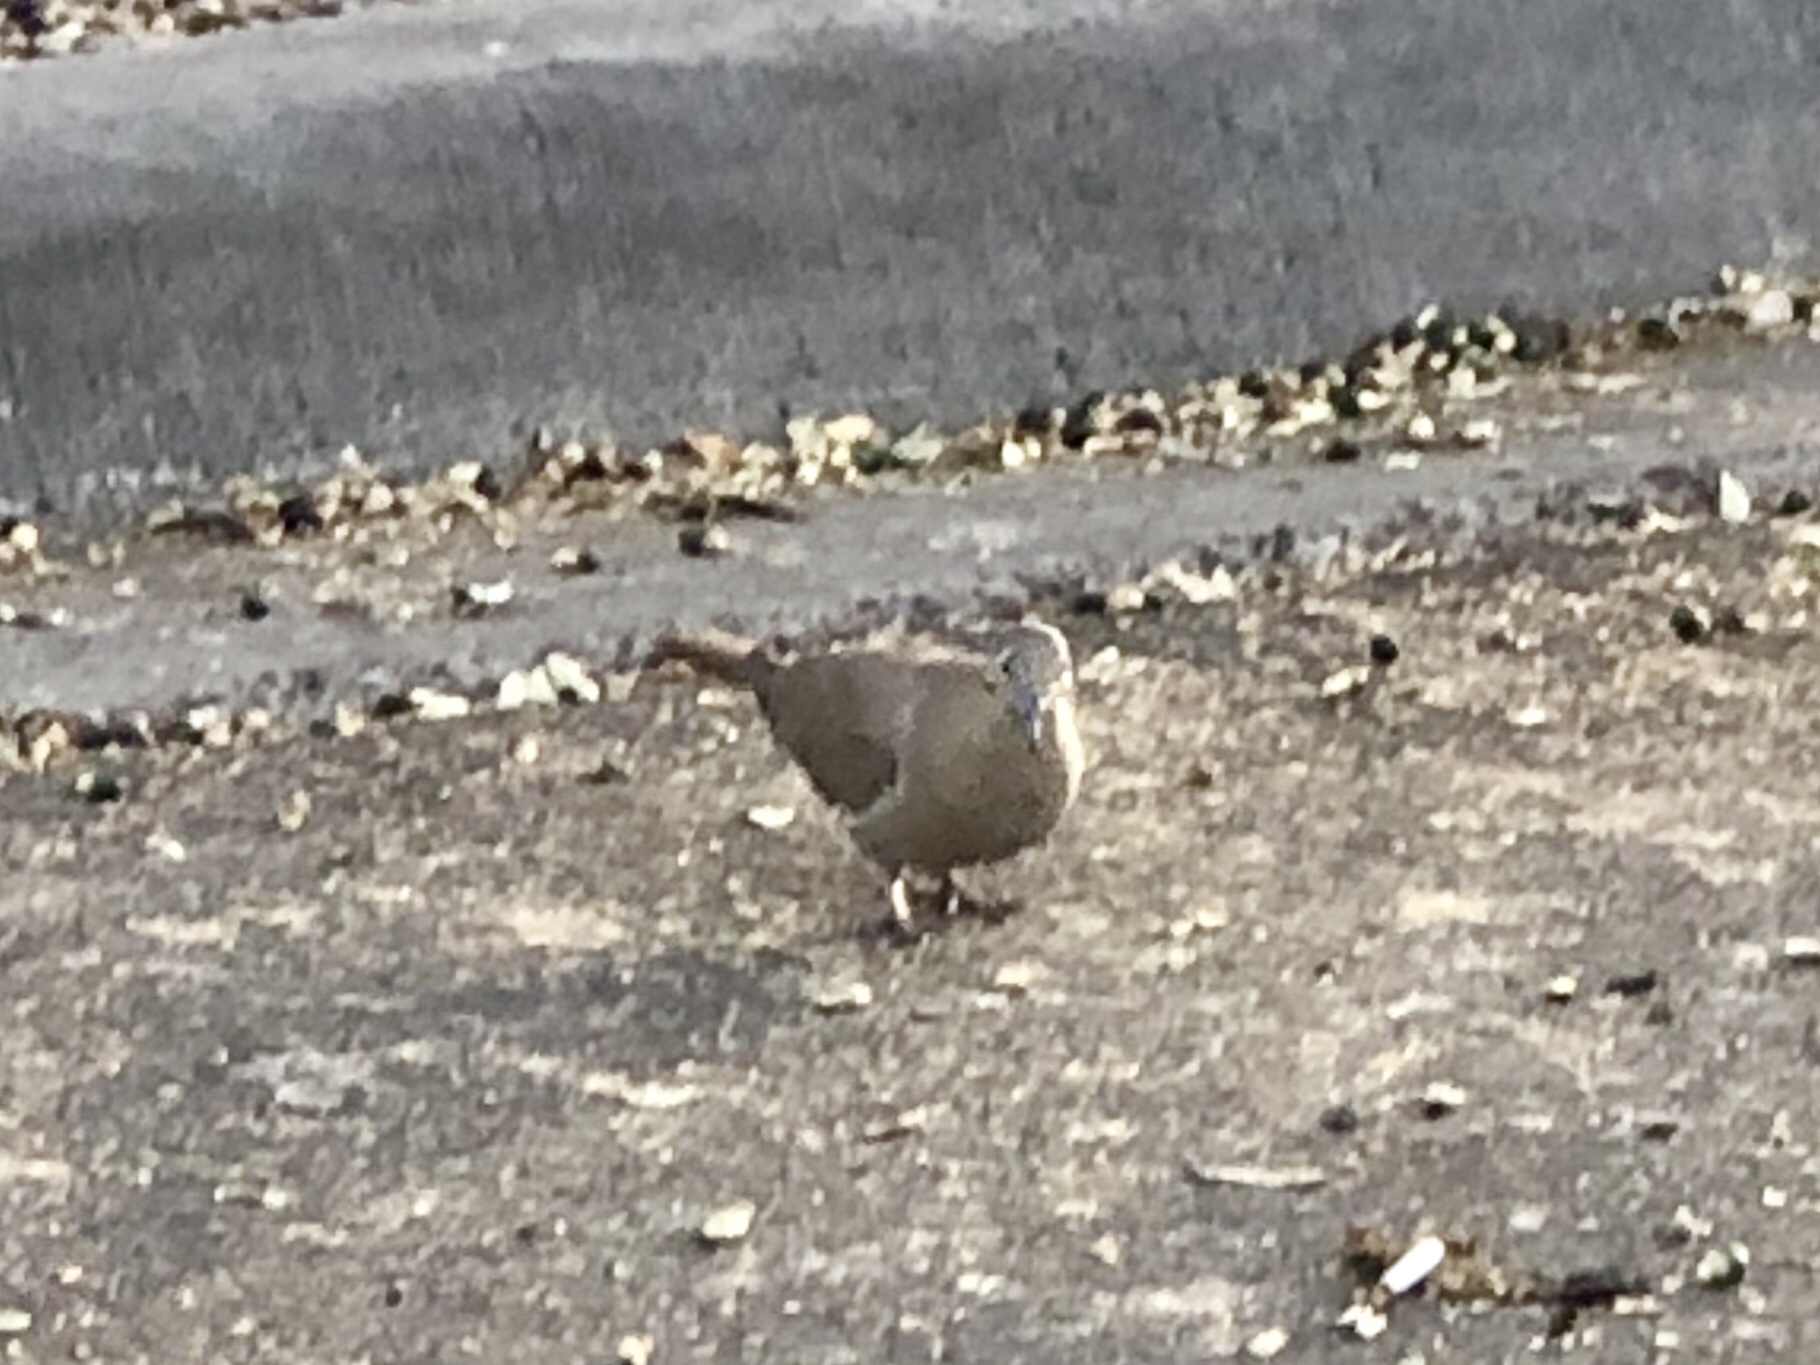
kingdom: Animalia
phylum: Chordata
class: Aves
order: Columbiformes
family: Columbidae
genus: Zenaida
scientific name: Zenaida asiatica
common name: White-winged dove
